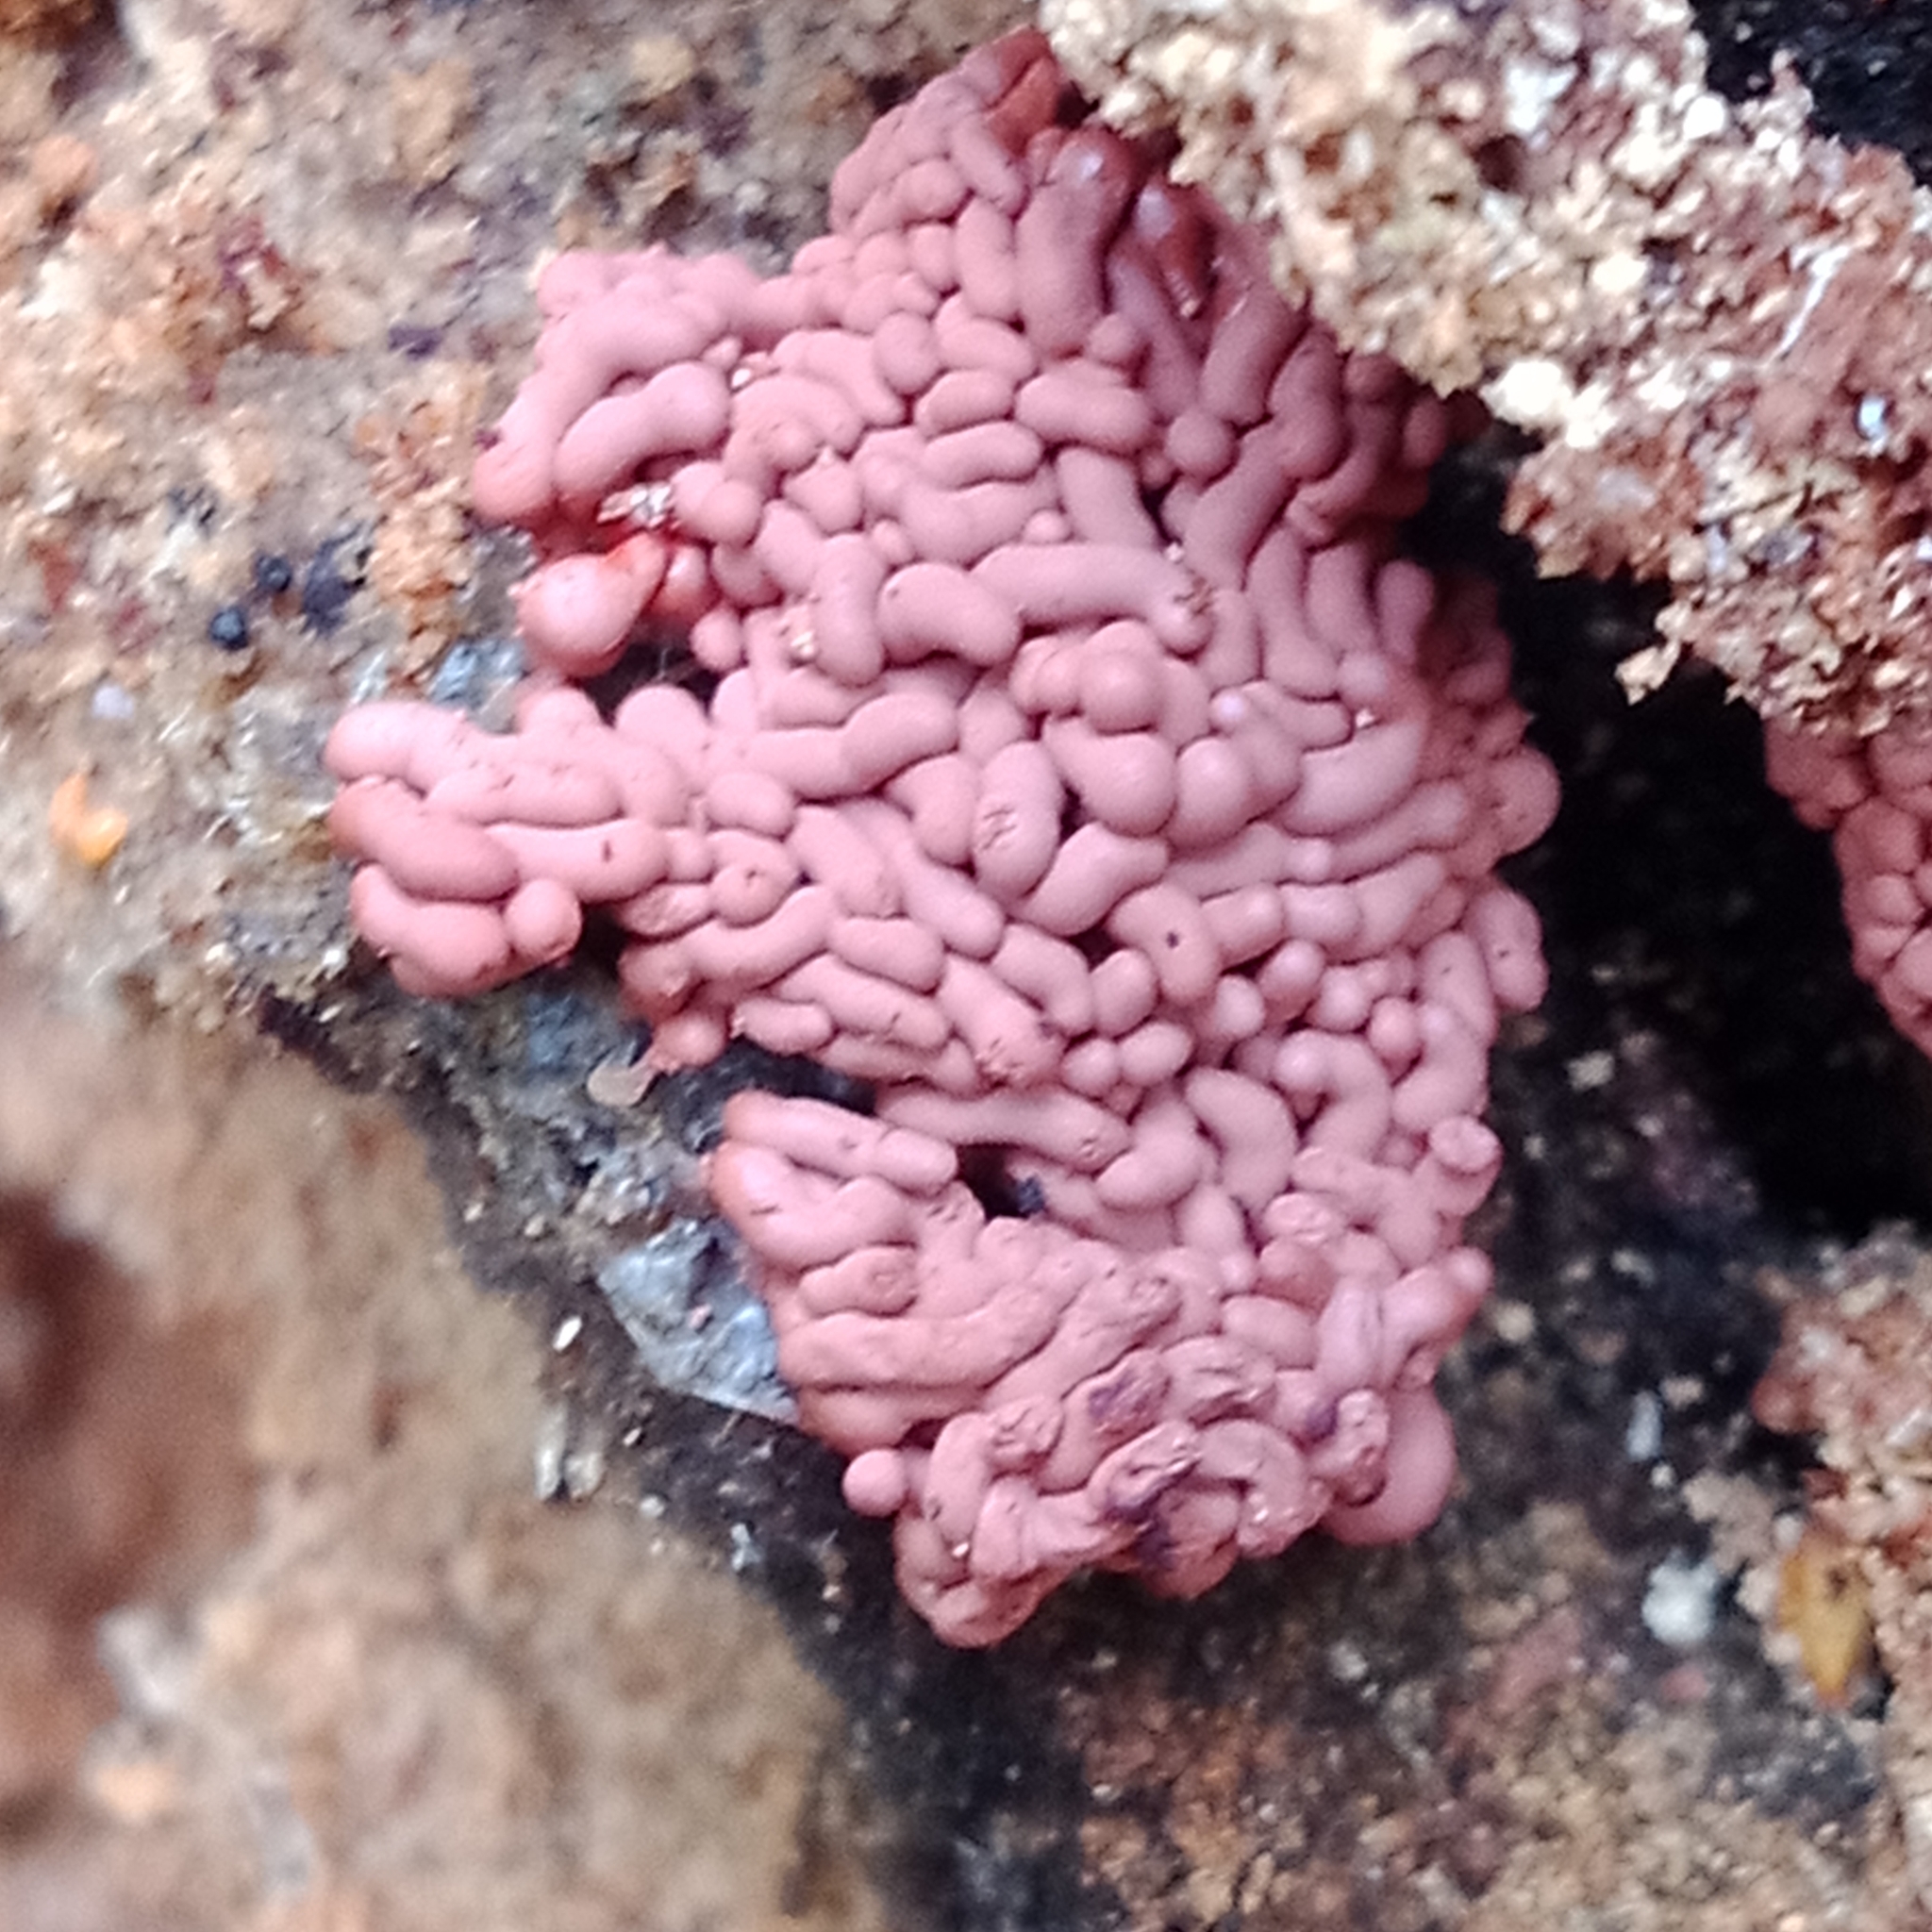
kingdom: Protozoa
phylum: Mycetozoa
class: Myxomycetes
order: Trichiales
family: Arcyriaceae
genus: Arcyria
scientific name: Arcyria stipata
